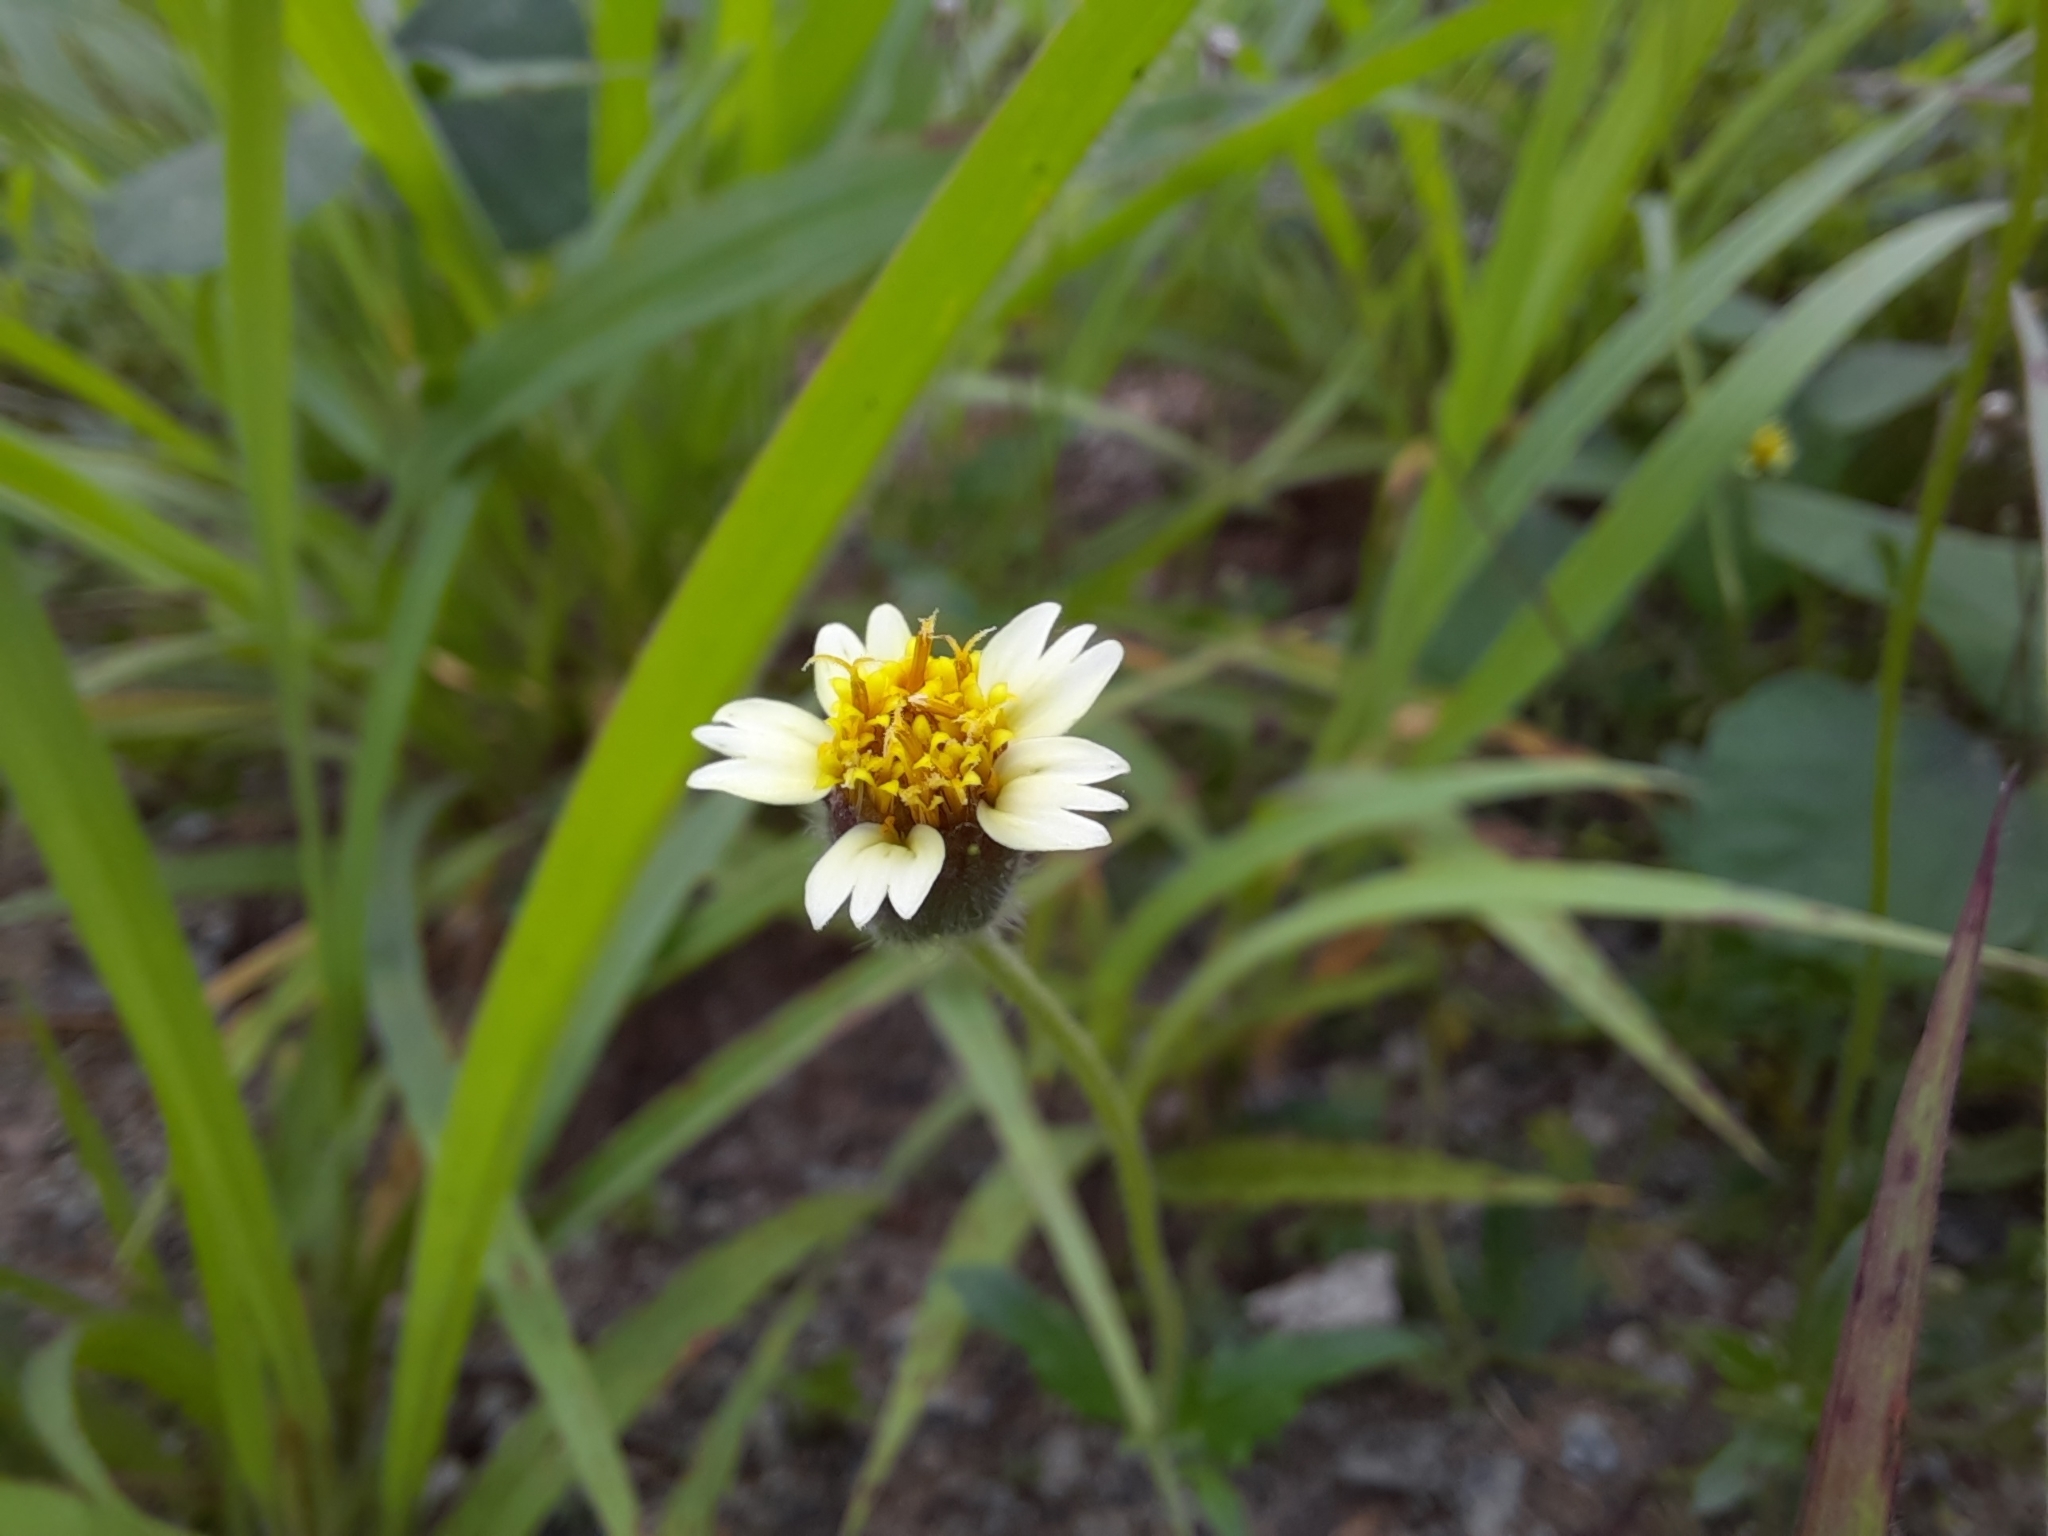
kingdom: Plantae
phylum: Tracheophyta
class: Magnoliopsida
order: Asterales
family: Asteraceae
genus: Tridax
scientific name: Tridax procumbens
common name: Coatbuttons
